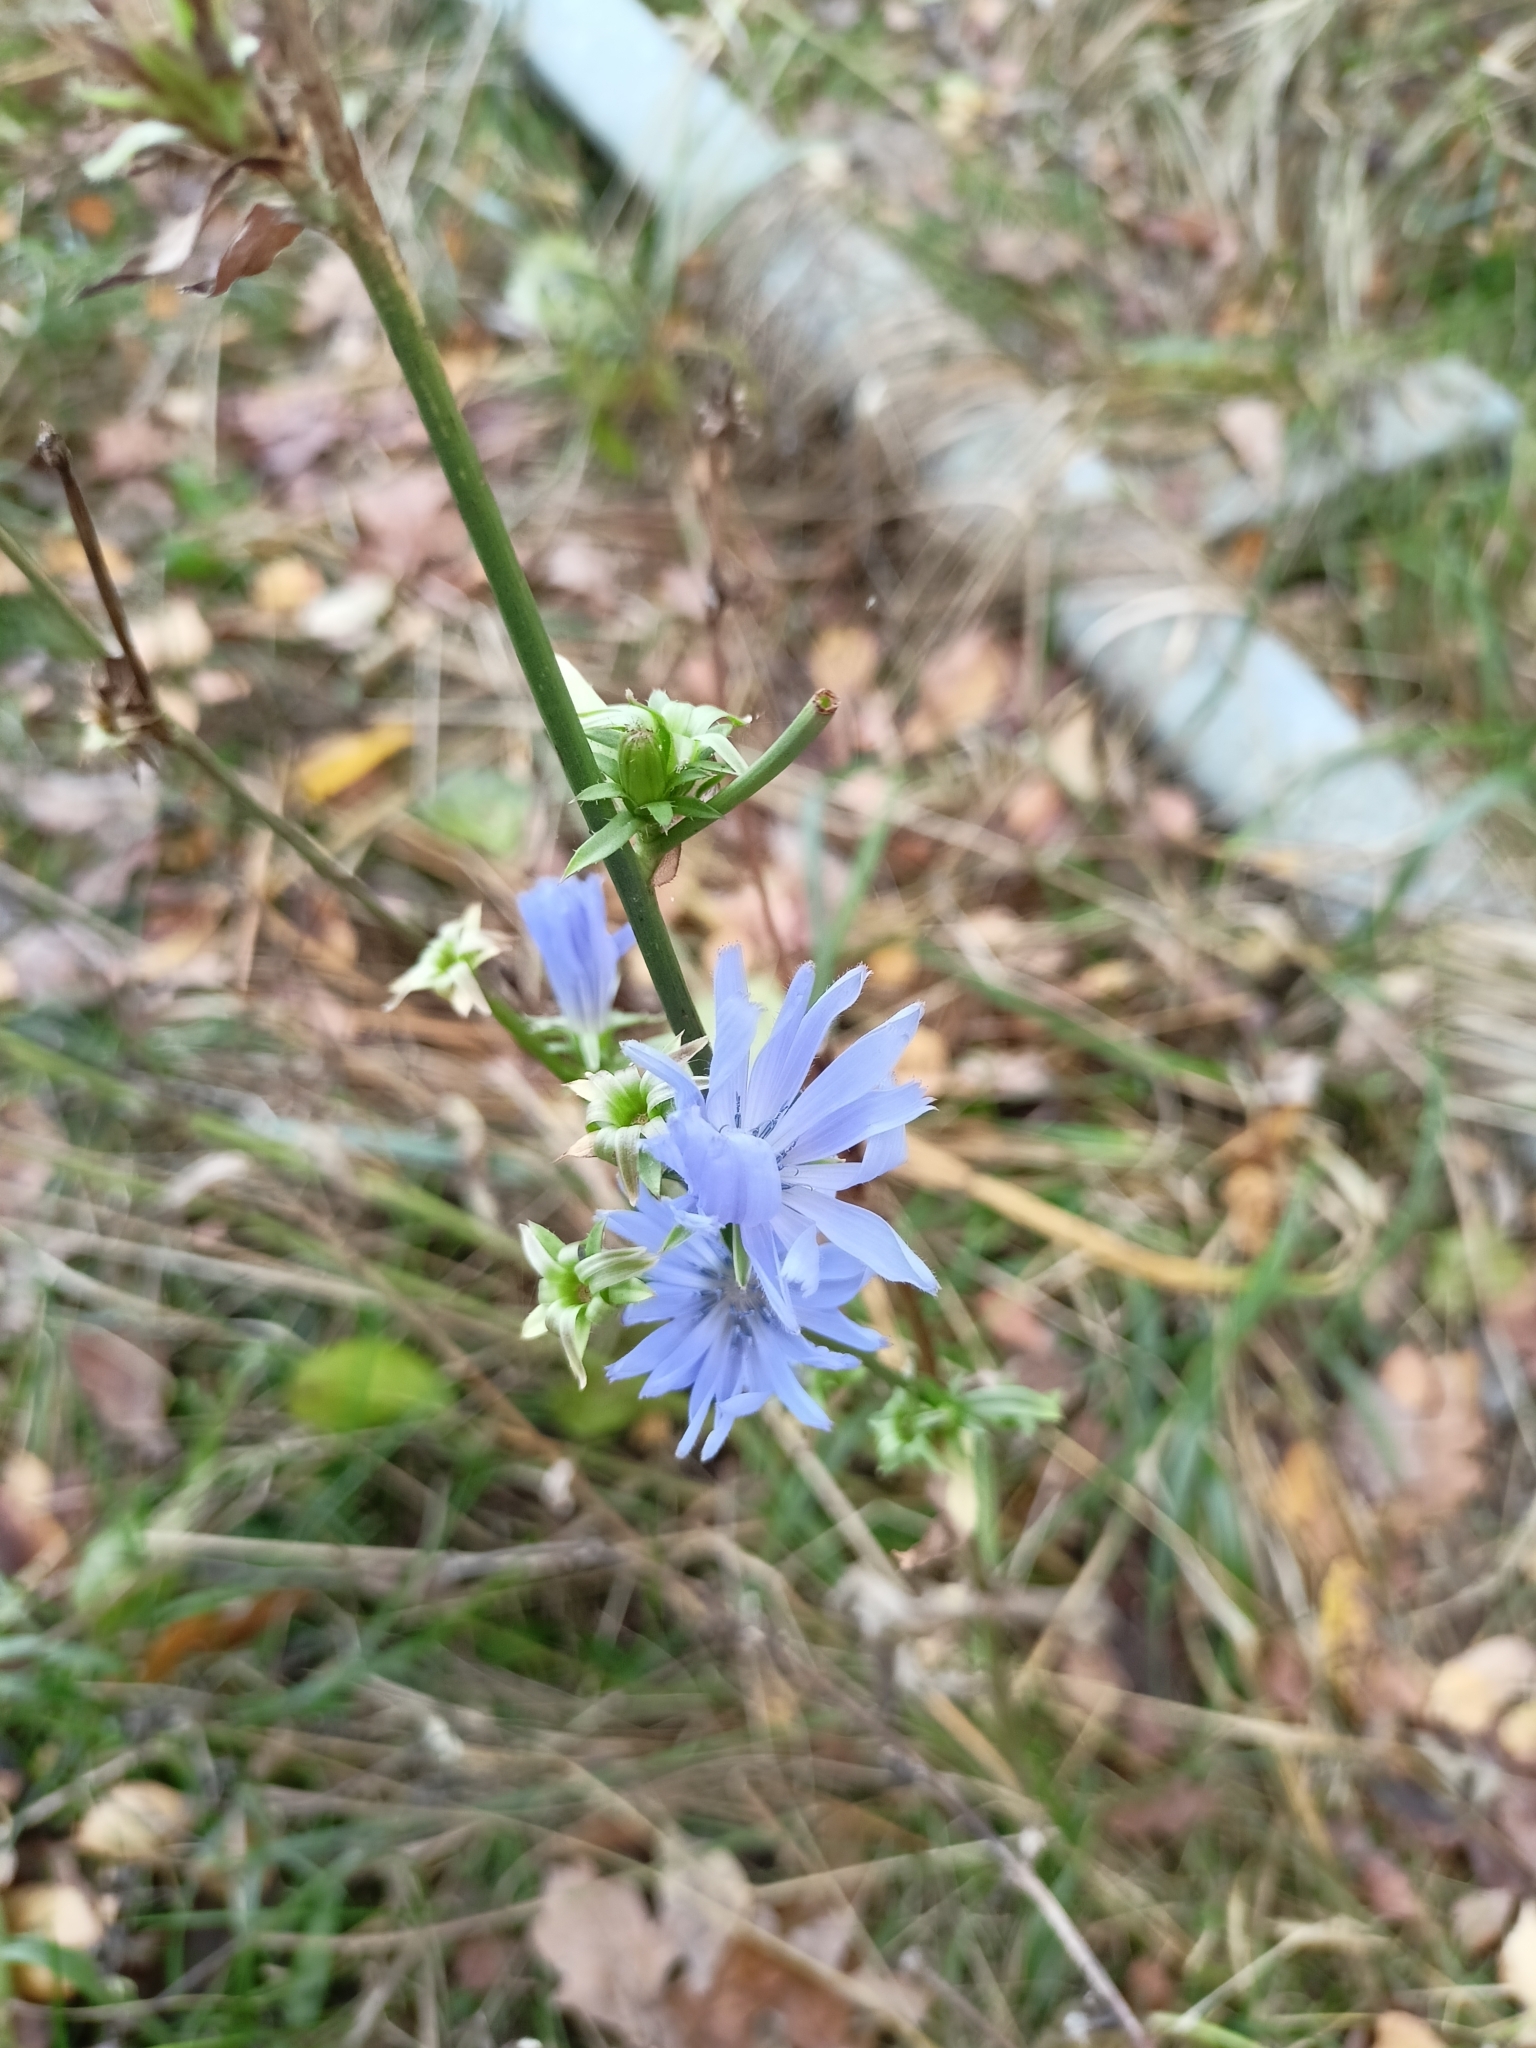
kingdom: Plantae
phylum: Tracheophyta
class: Magnoliopsida
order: Asterales
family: Asteraceae
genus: Cichorium
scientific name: Cichorium intybus
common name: Chicory
